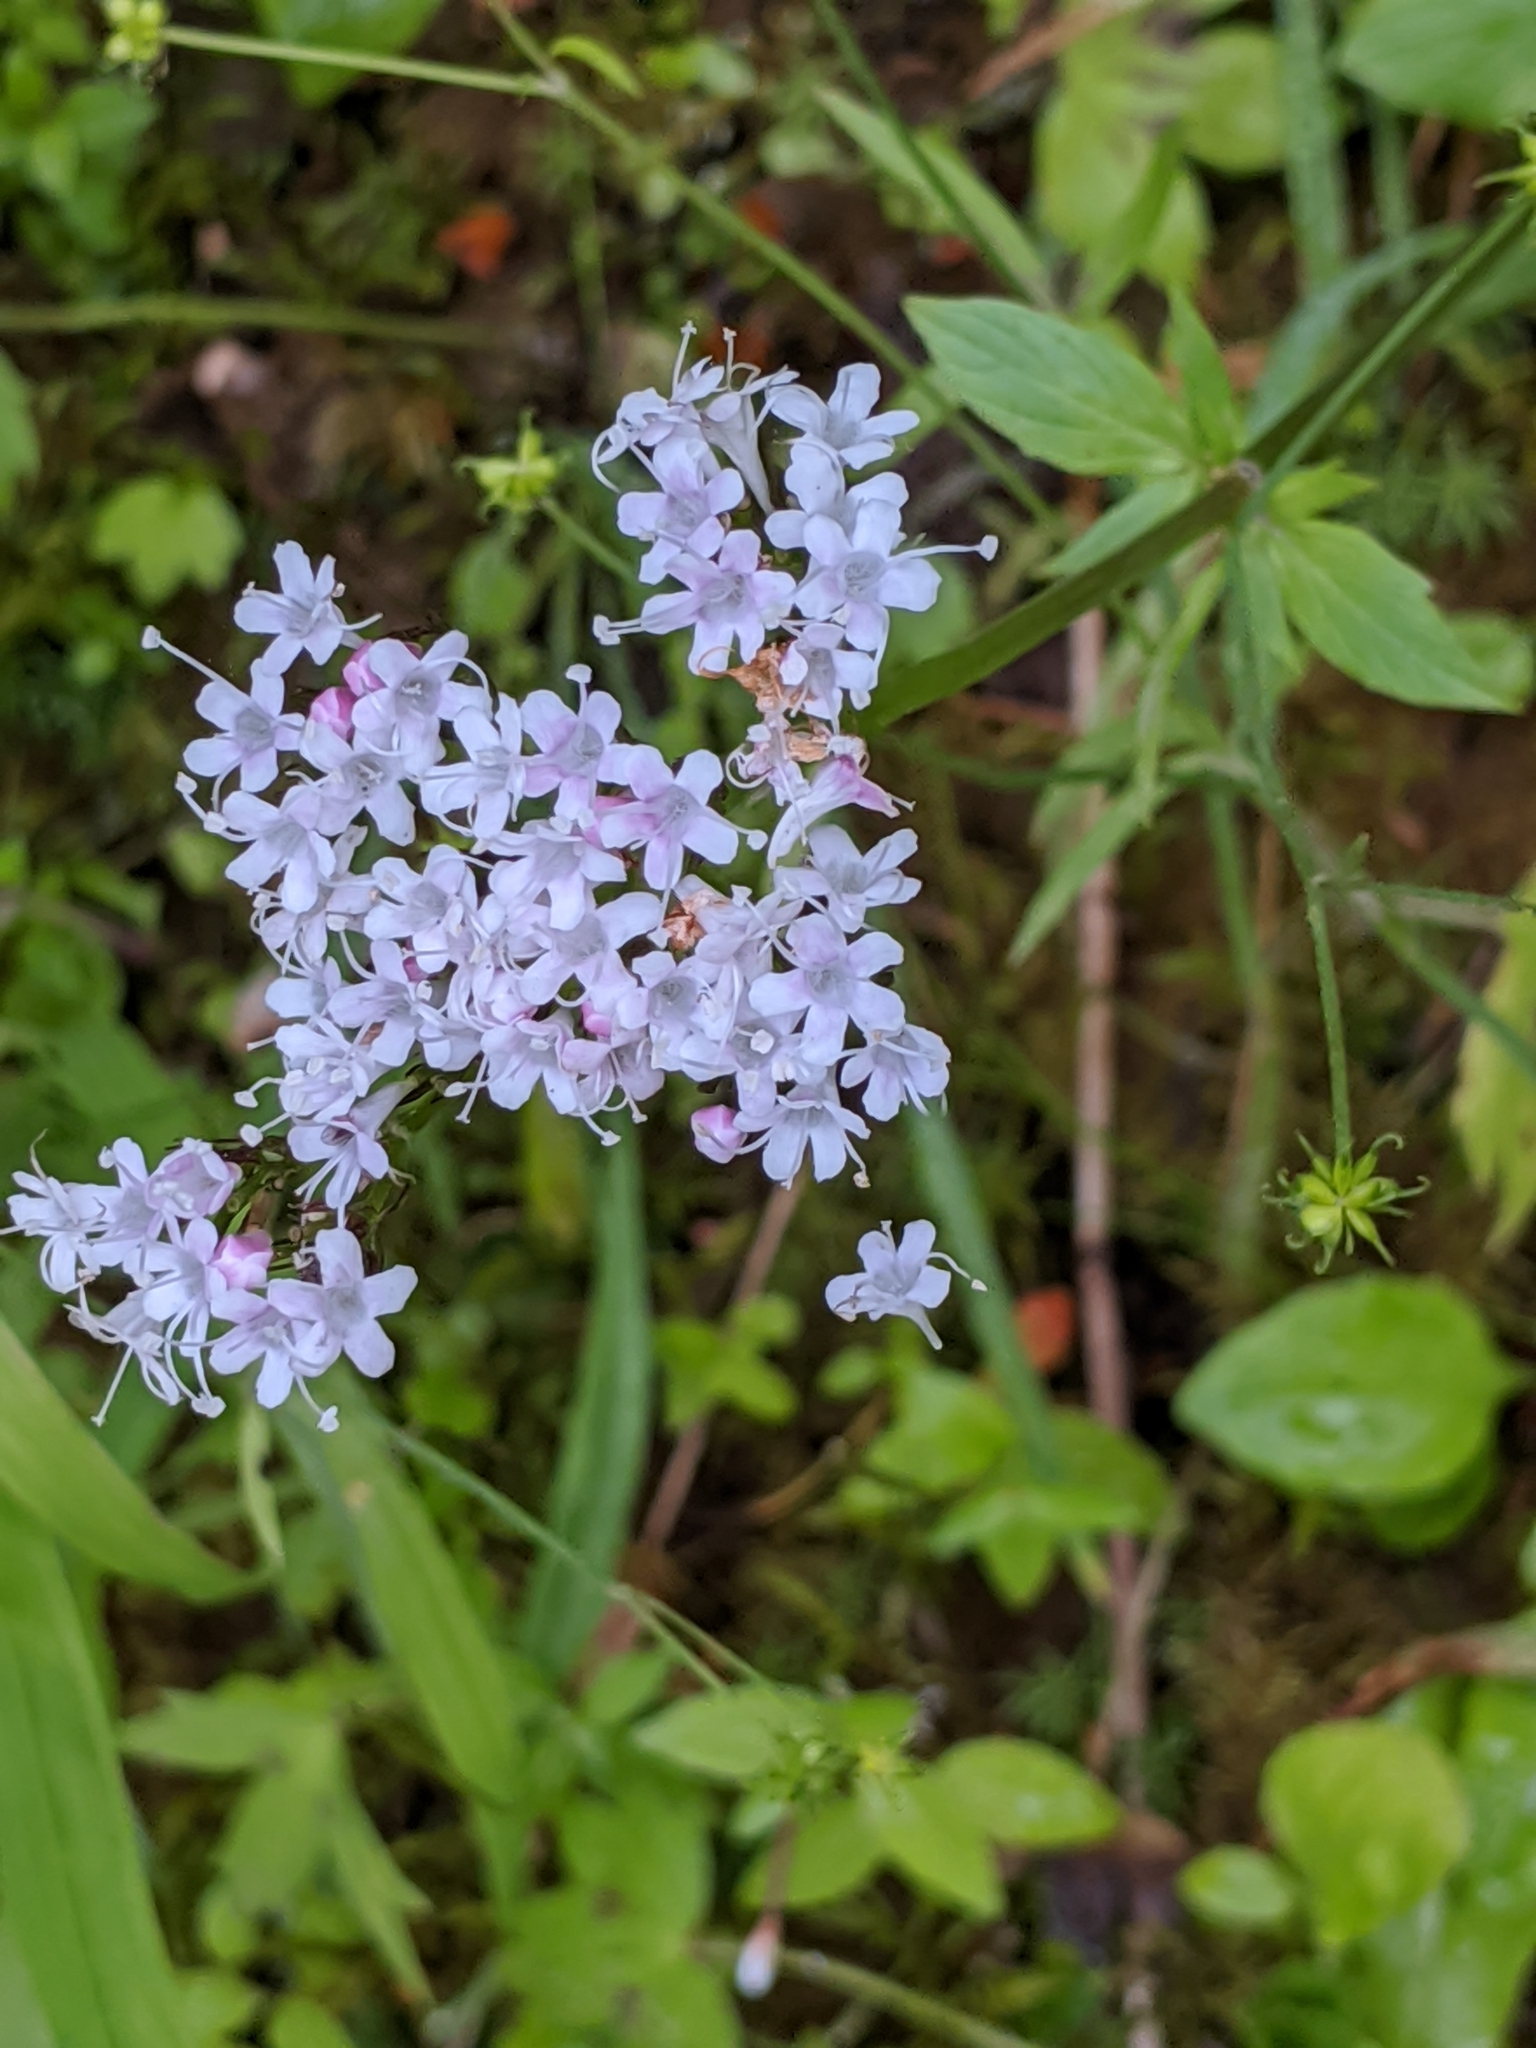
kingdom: Plantae
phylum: Tracheophyta
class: Magnoliopsida
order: Dipsacales
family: Caprifoliaceae
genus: Valeriana
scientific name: Valeriana sitchensis
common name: Pacific valerian
